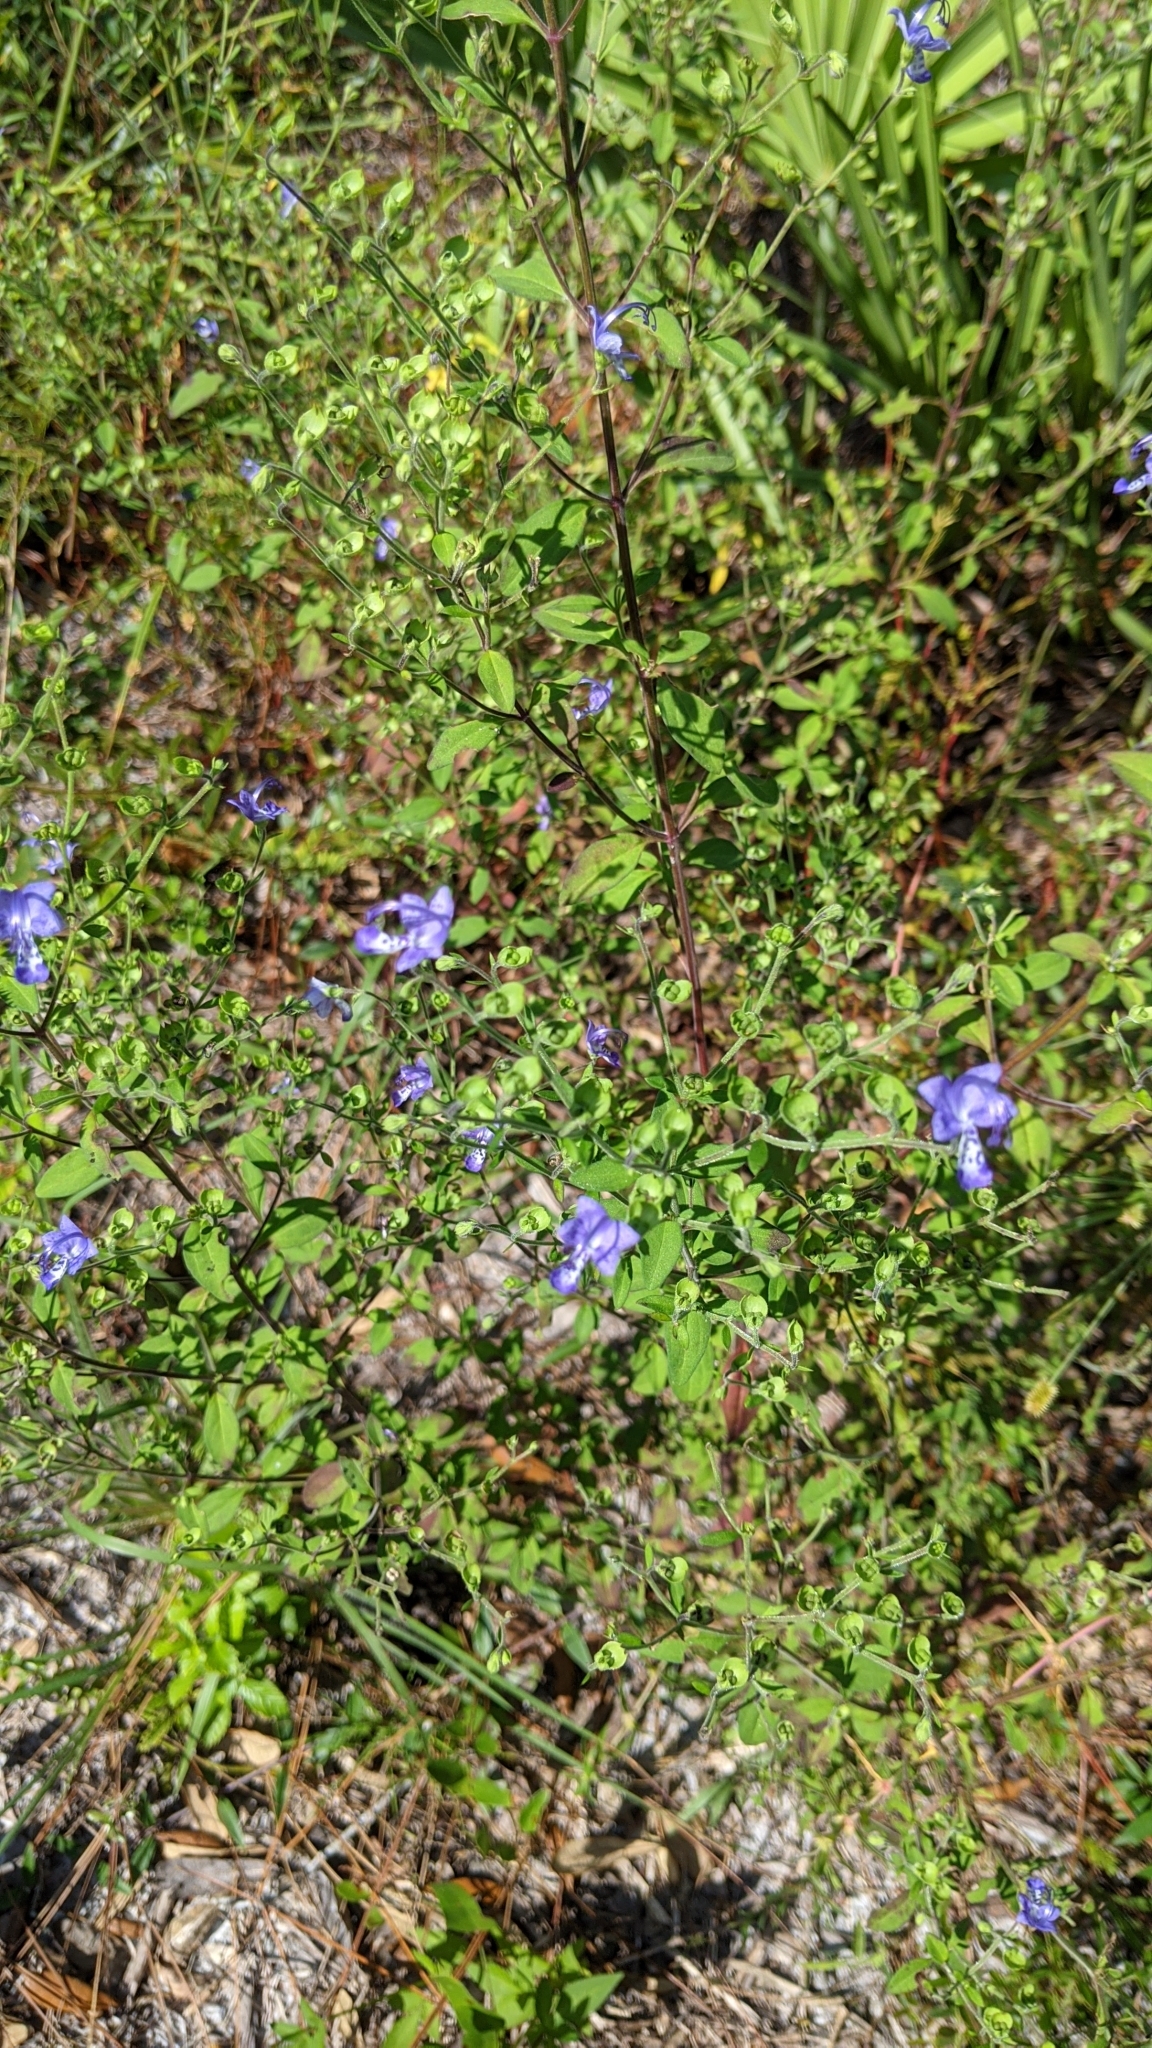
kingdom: Plantae
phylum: Tracheophyta
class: Magnoliopsida
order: Lamiales
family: Lamiaceae
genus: Trichostema
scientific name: Trichostema dichotomum
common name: Bastard pennyroyal
